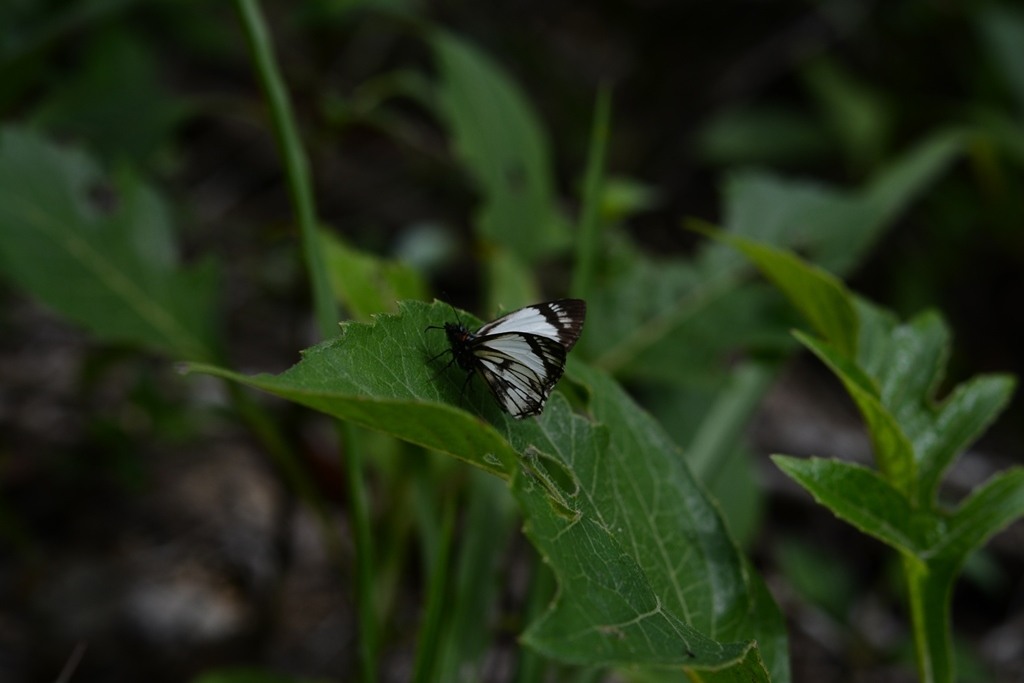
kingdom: Animalia
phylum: Arthropoda
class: Insecta
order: Lepidoptera
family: Hesperiidae
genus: Heliopetes
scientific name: Heliopetes alana
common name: Alana white-skipper
